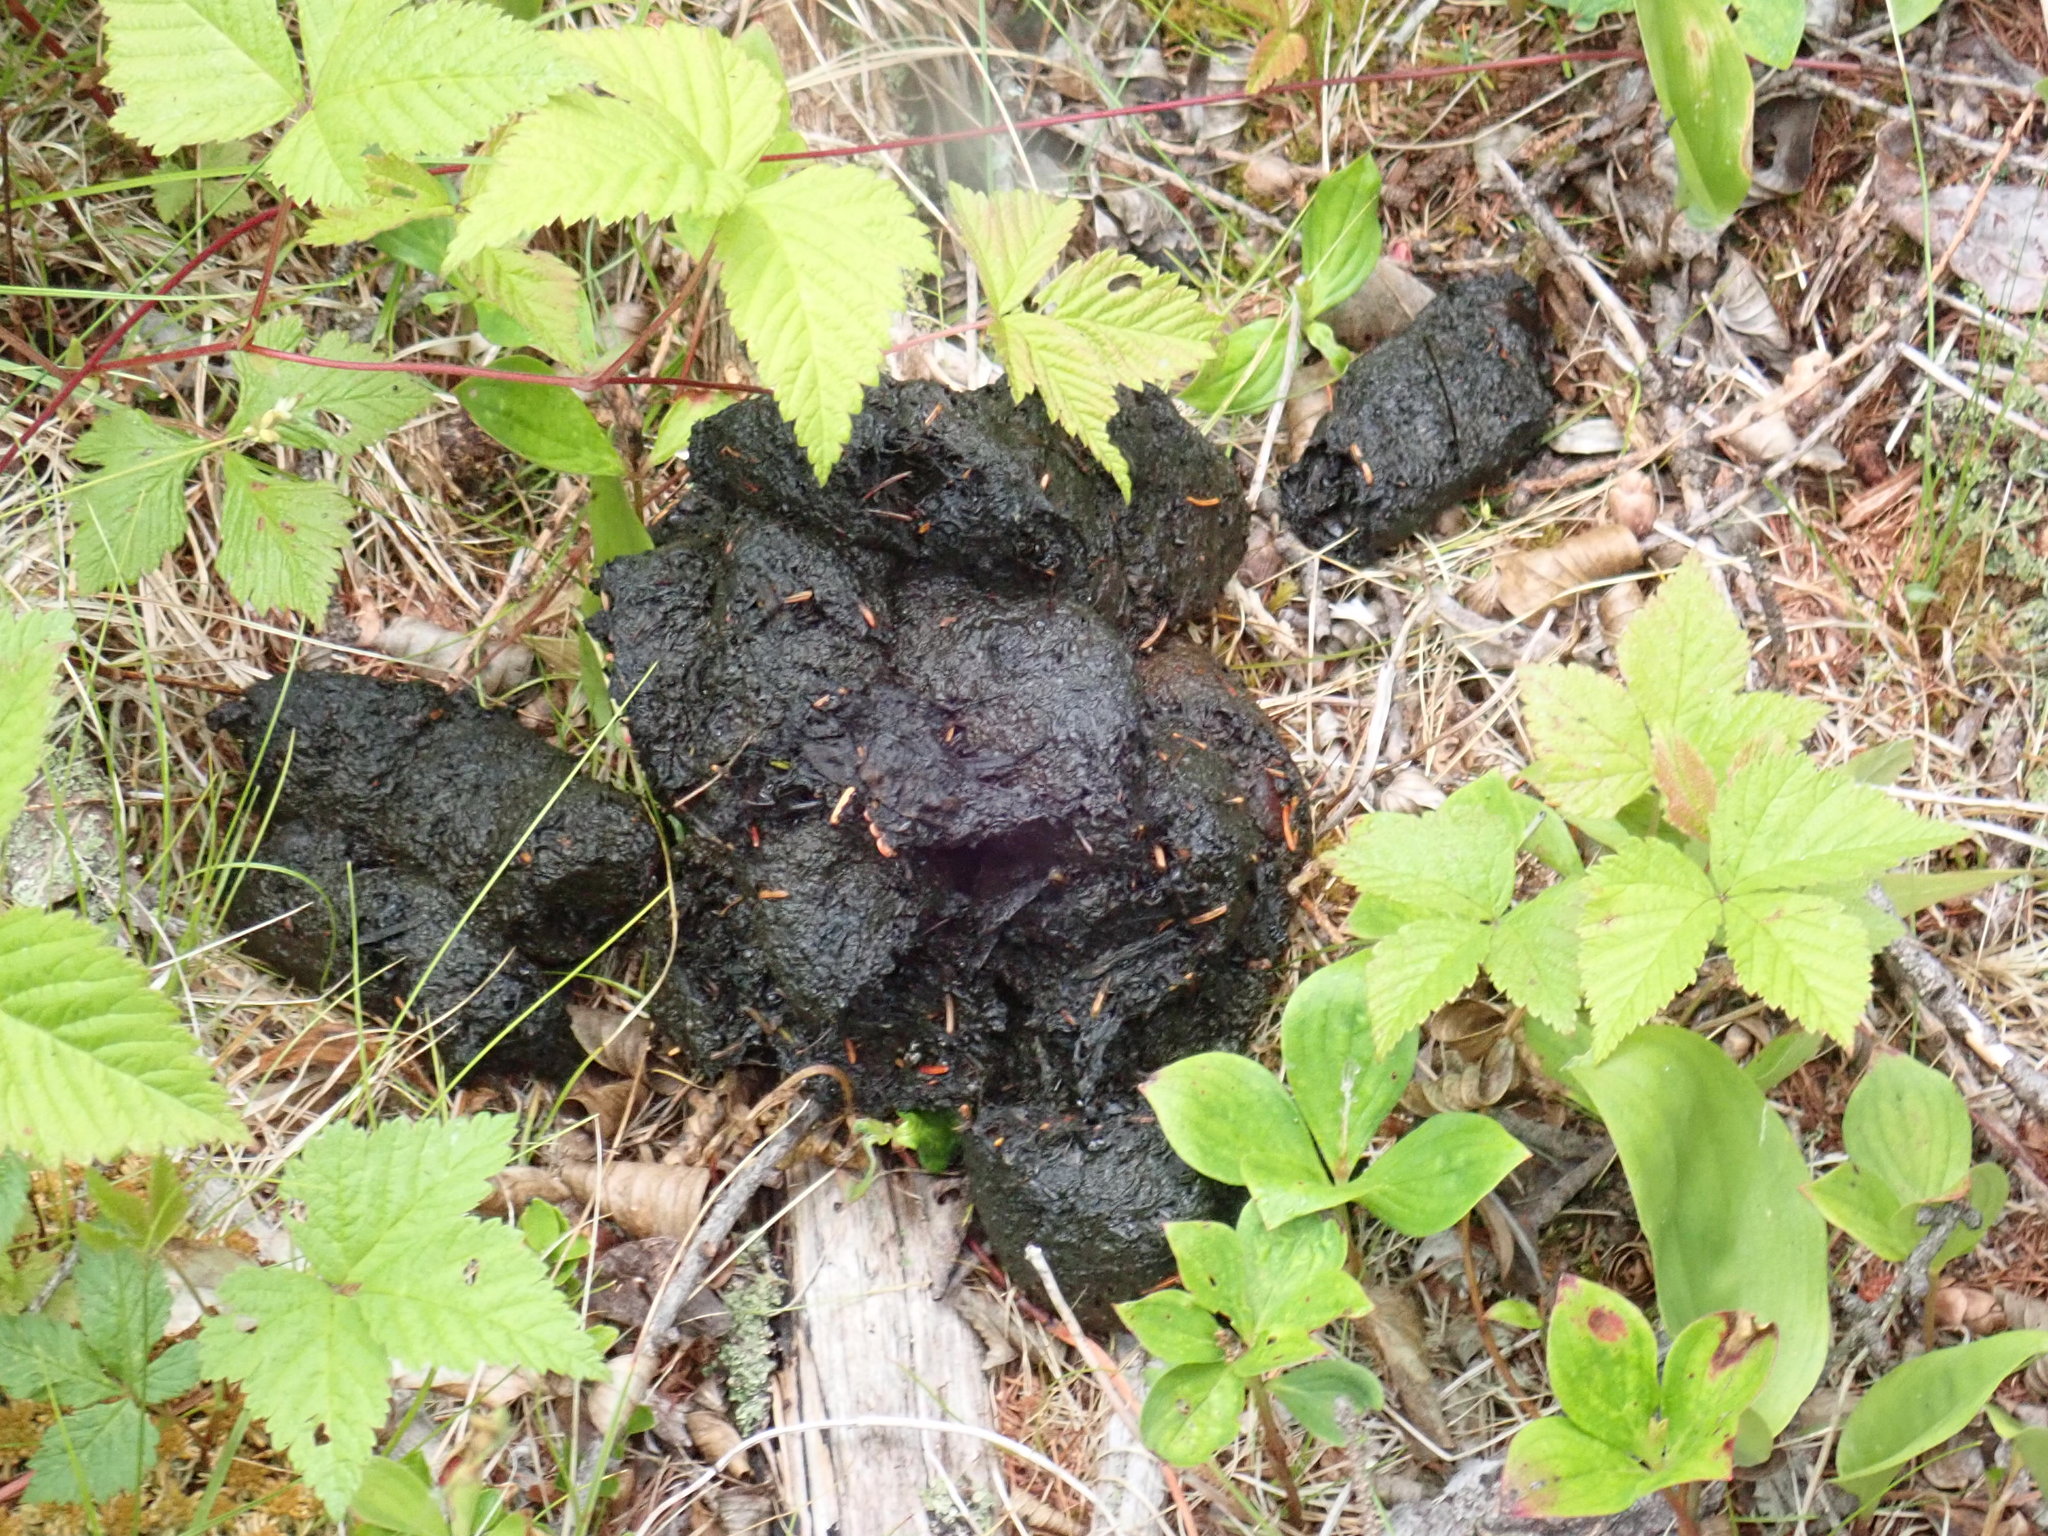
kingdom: Animalia
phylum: Chordata
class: Mammalia
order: Carnivora
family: Ursidae
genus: Ursus
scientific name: Ursus americanus
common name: American black bear
